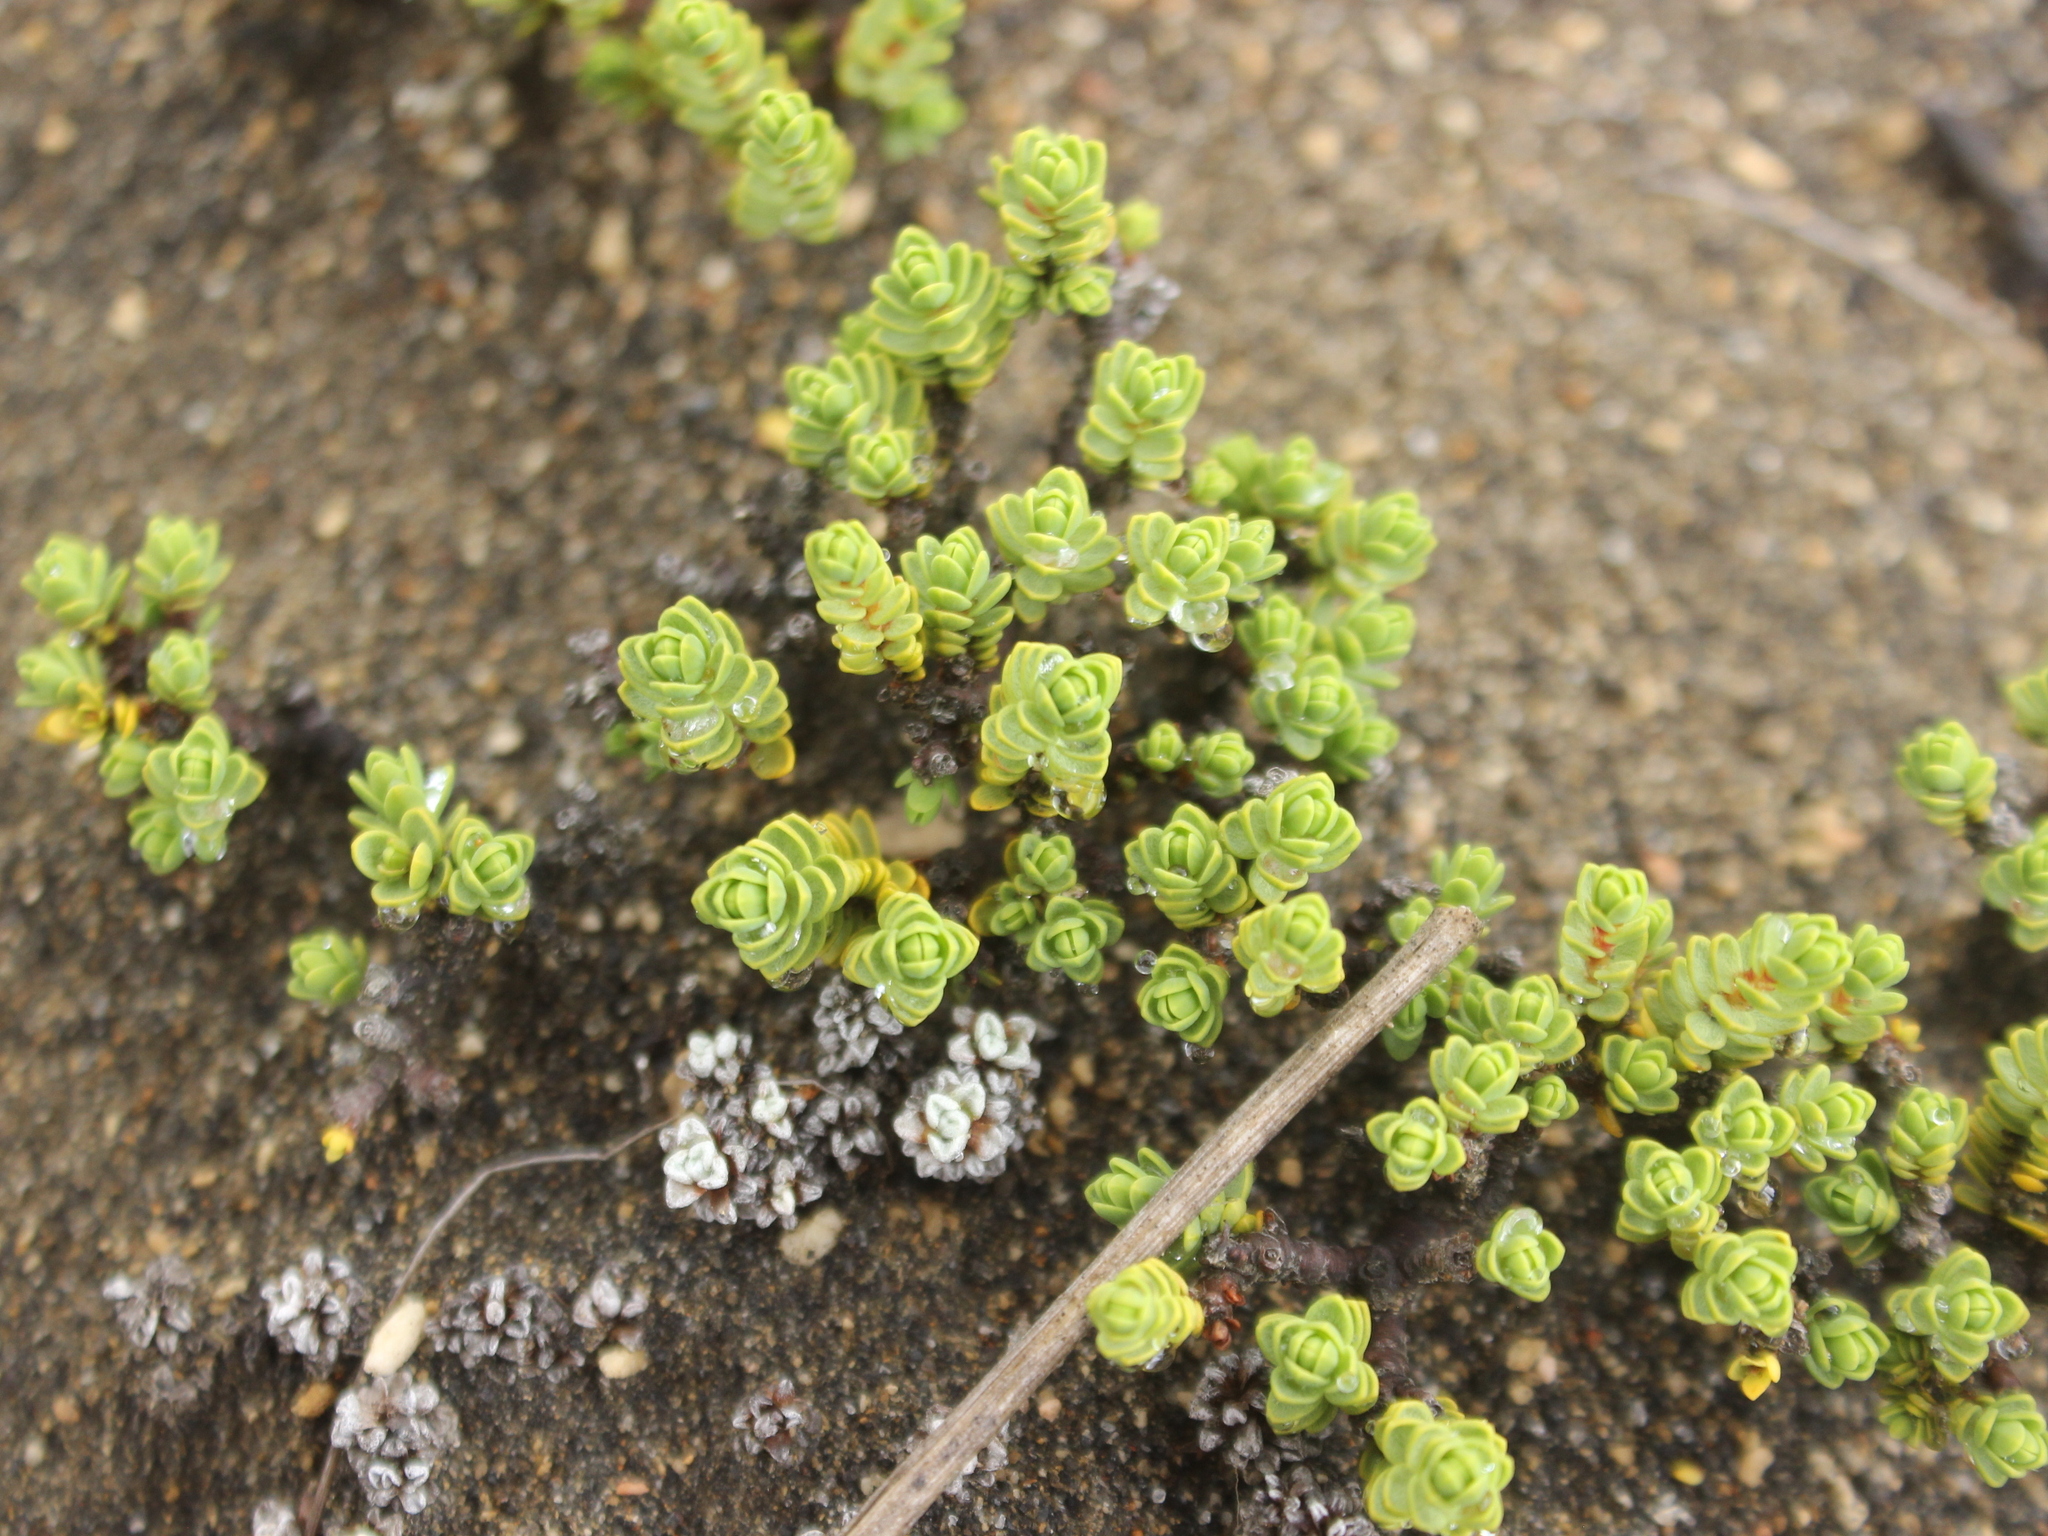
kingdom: Plantae
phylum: Tracheophyta
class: Magnoliopsida
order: Malvales
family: Thymelaeaceae
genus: Pimelea
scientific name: Pimelea microphylla
